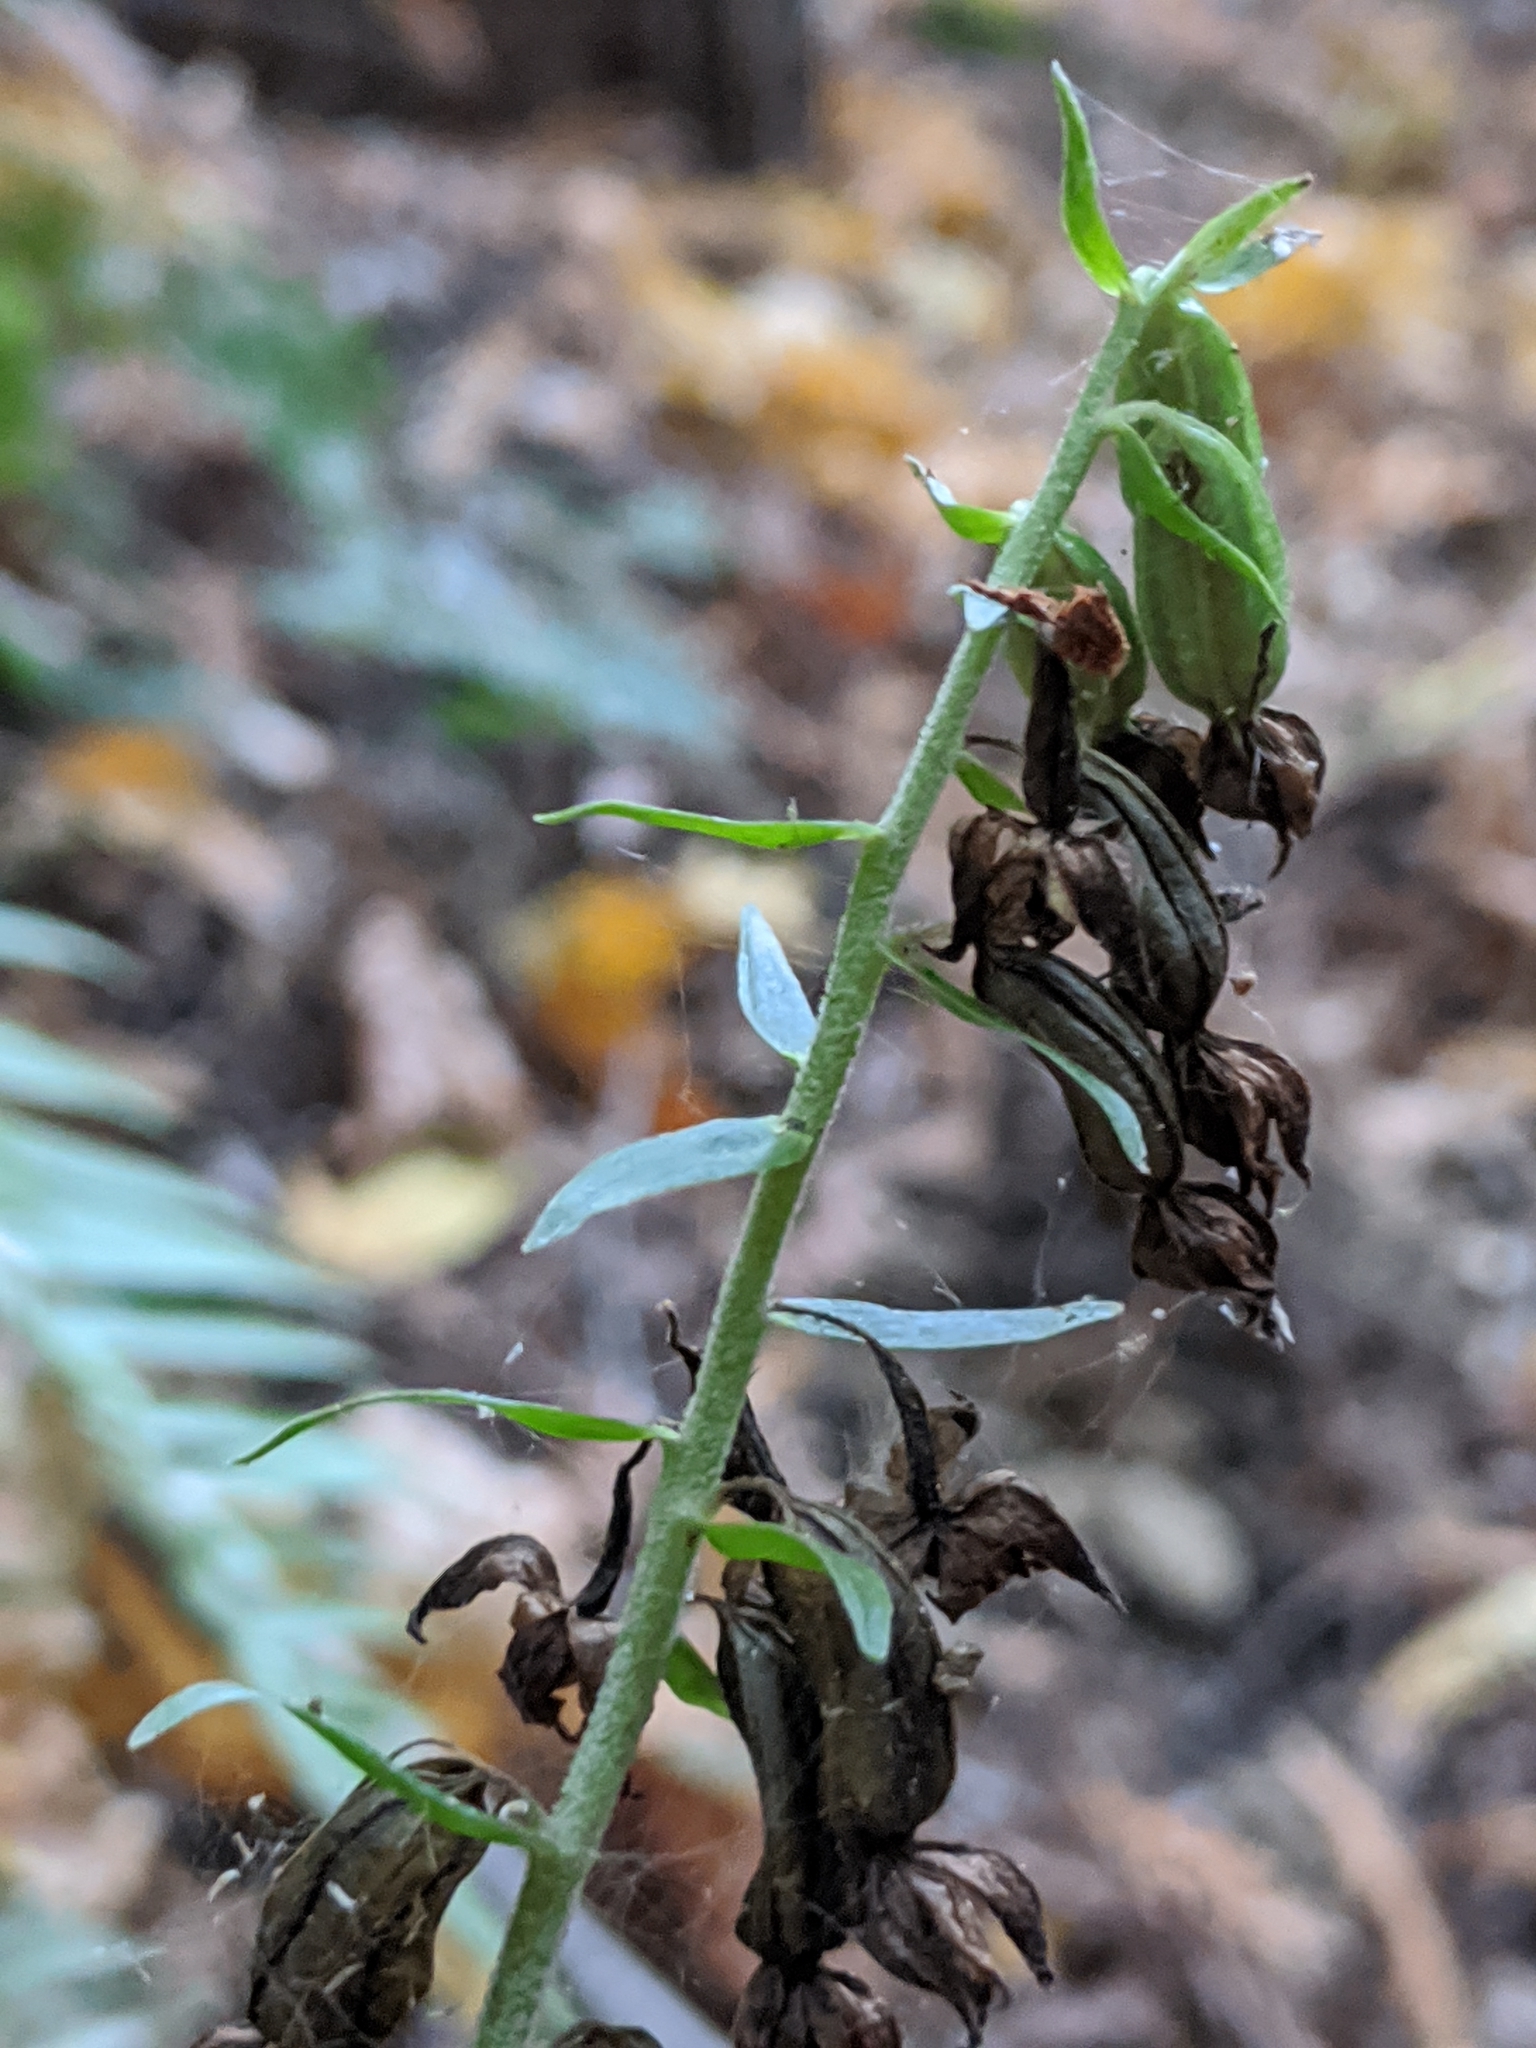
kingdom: Plantae
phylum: Tracheophyta
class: Liliopsida
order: Asparagales
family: Orchidaceae
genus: Epipactis
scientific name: Epipactis helleborine
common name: Broad-leaved helleborine
